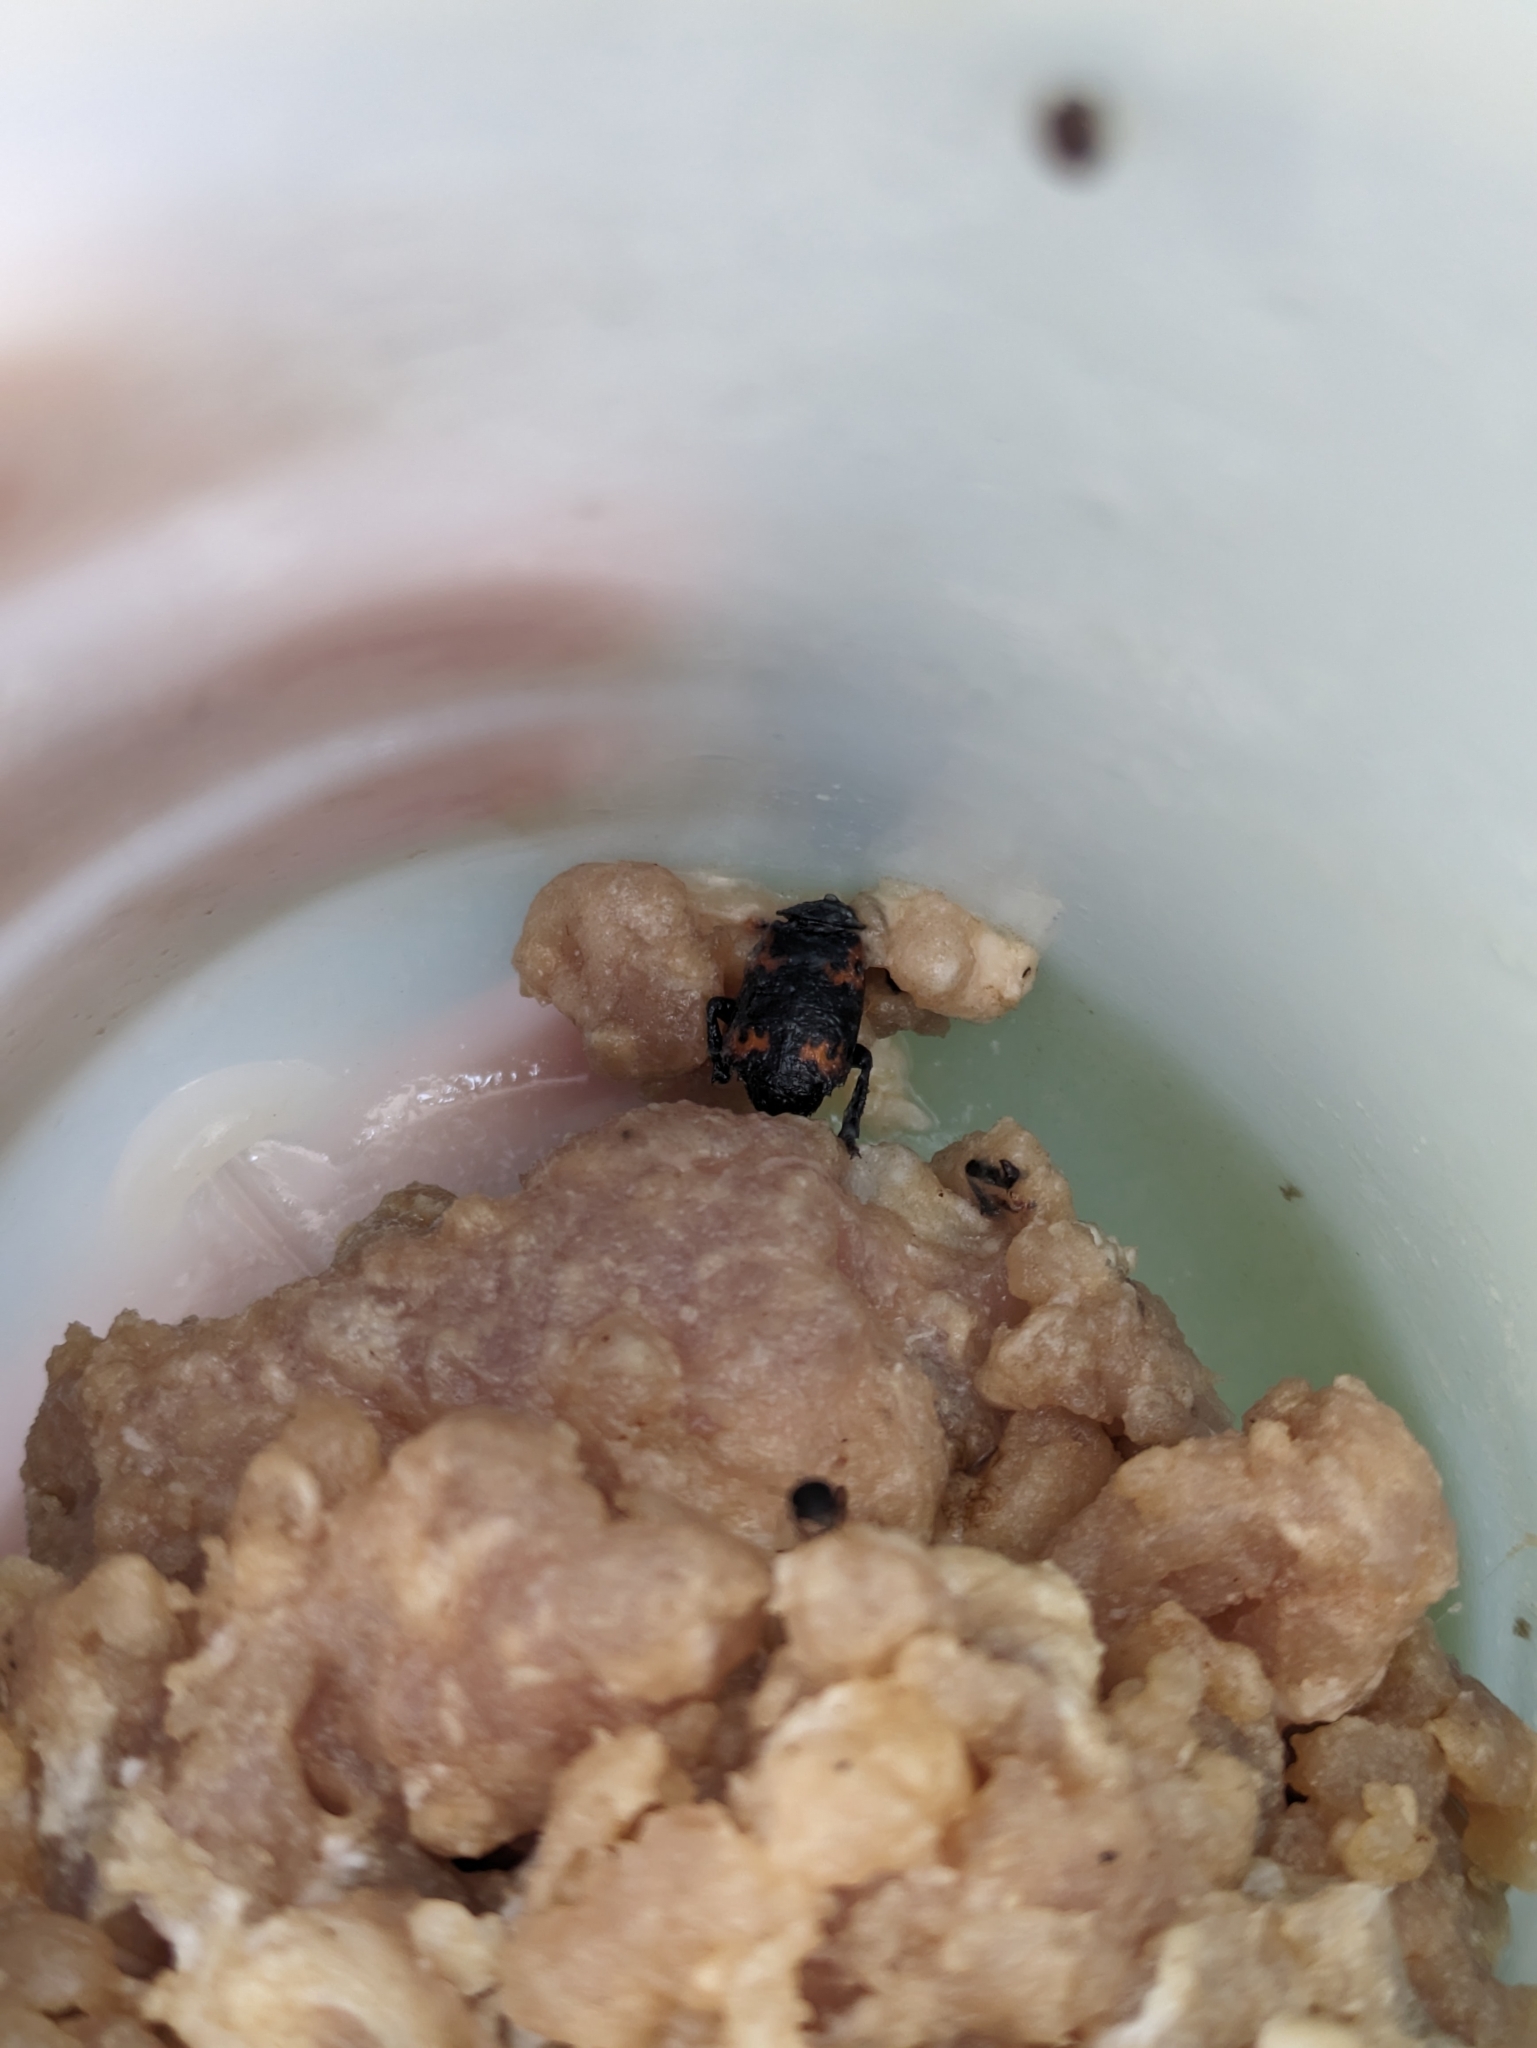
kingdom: Animalia
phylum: Arthropoda
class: Insecta
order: Coleoptera
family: Staphylinidae
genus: Nicrophorus
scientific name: Nicrophorus nepalensis
